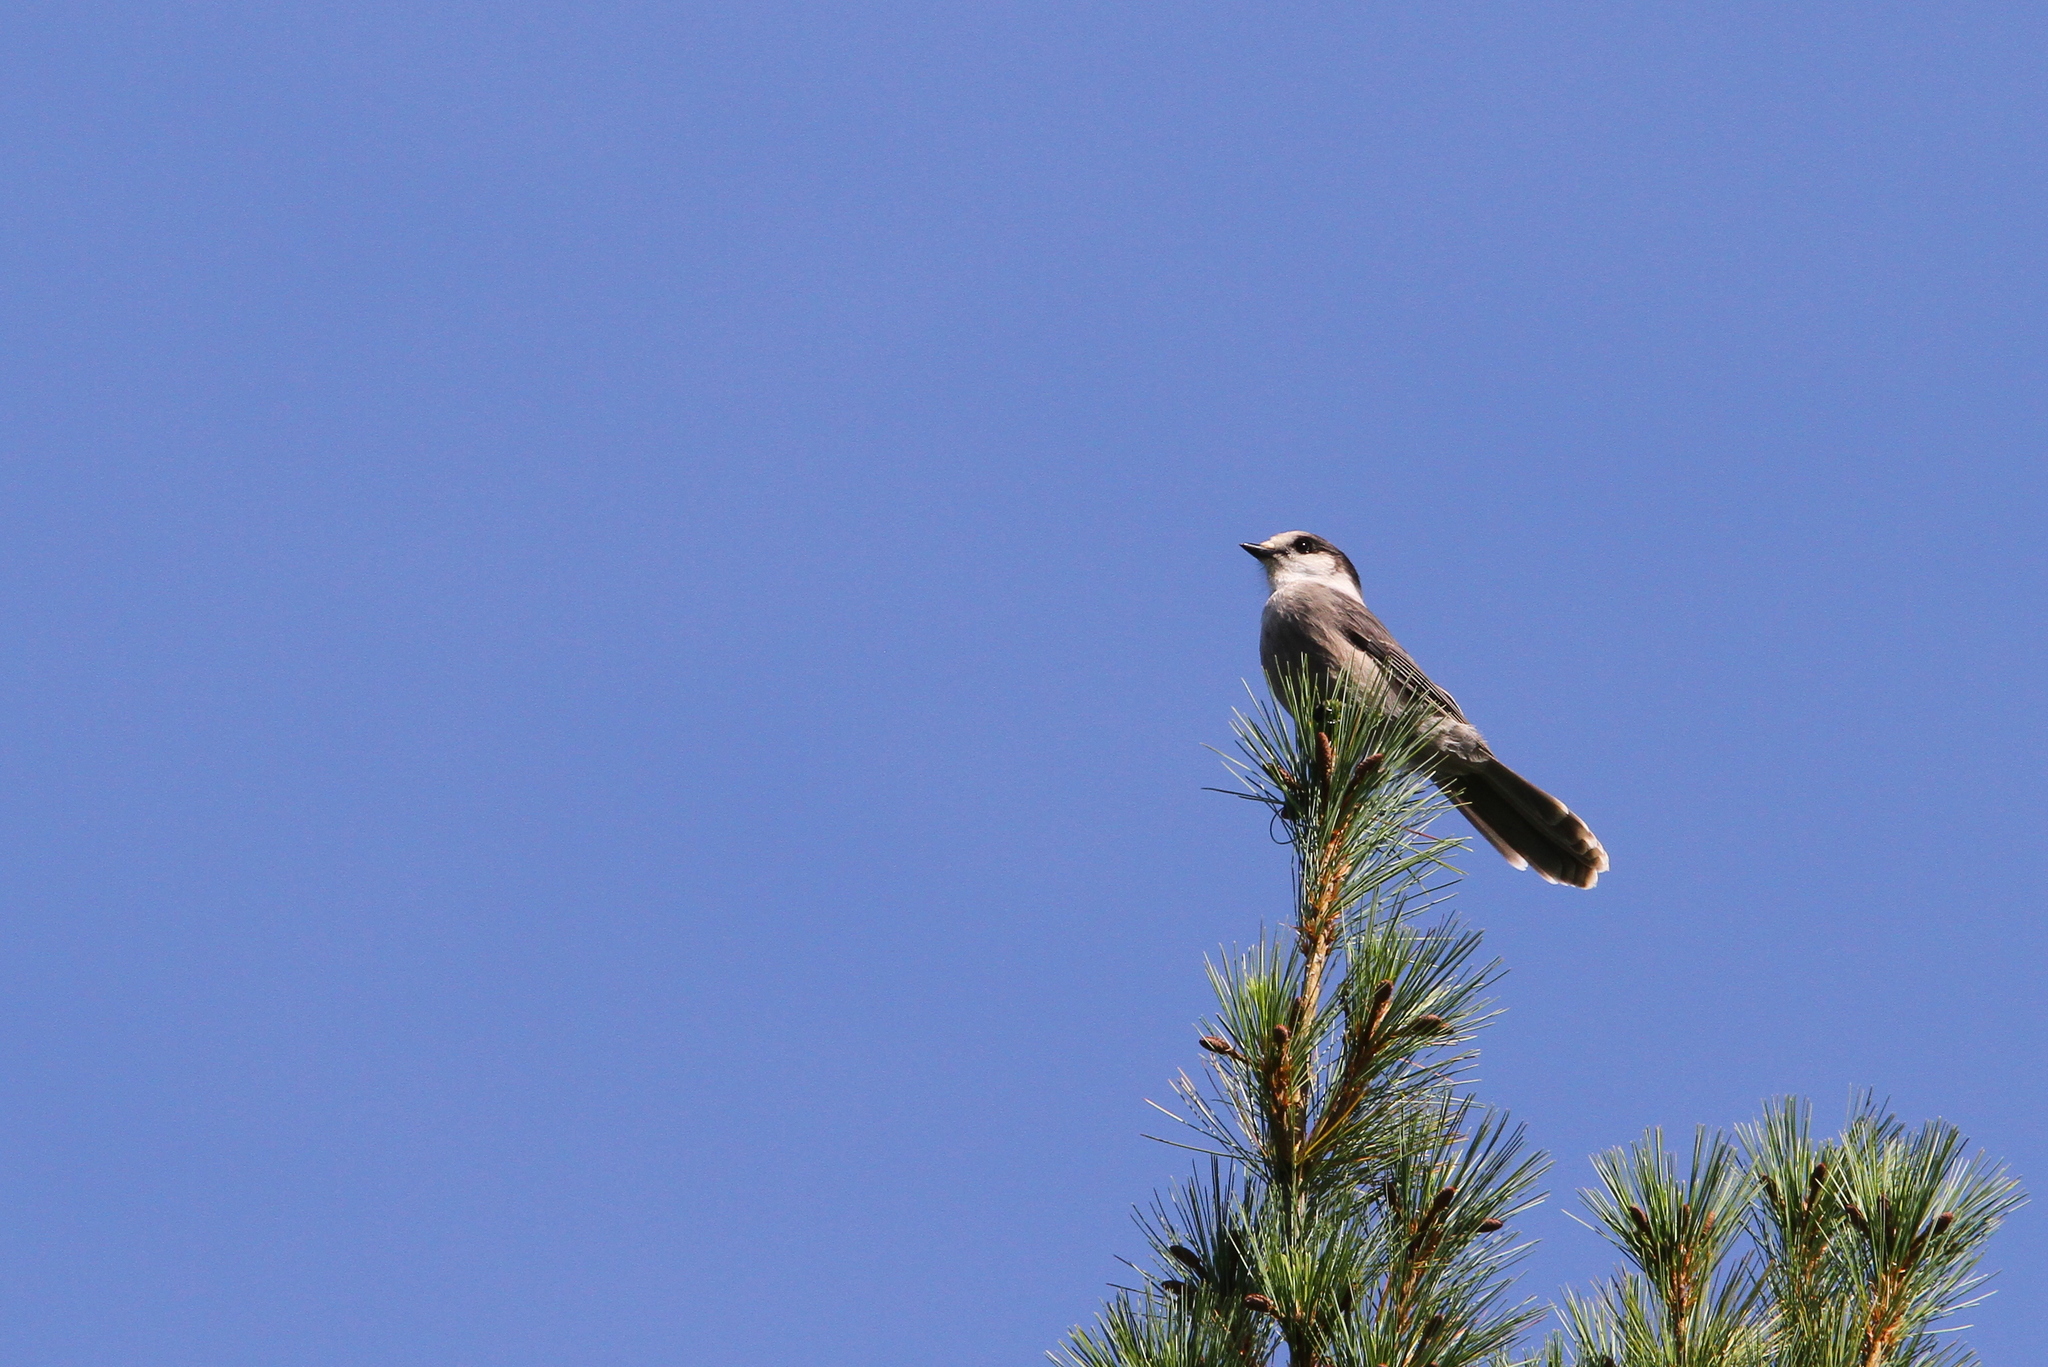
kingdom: Animalia
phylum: Chordata
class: Aves
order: Passeriformes
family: Corvidae
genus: Perisoreus
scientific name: Perisoreus canadensis
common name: Gray jay
